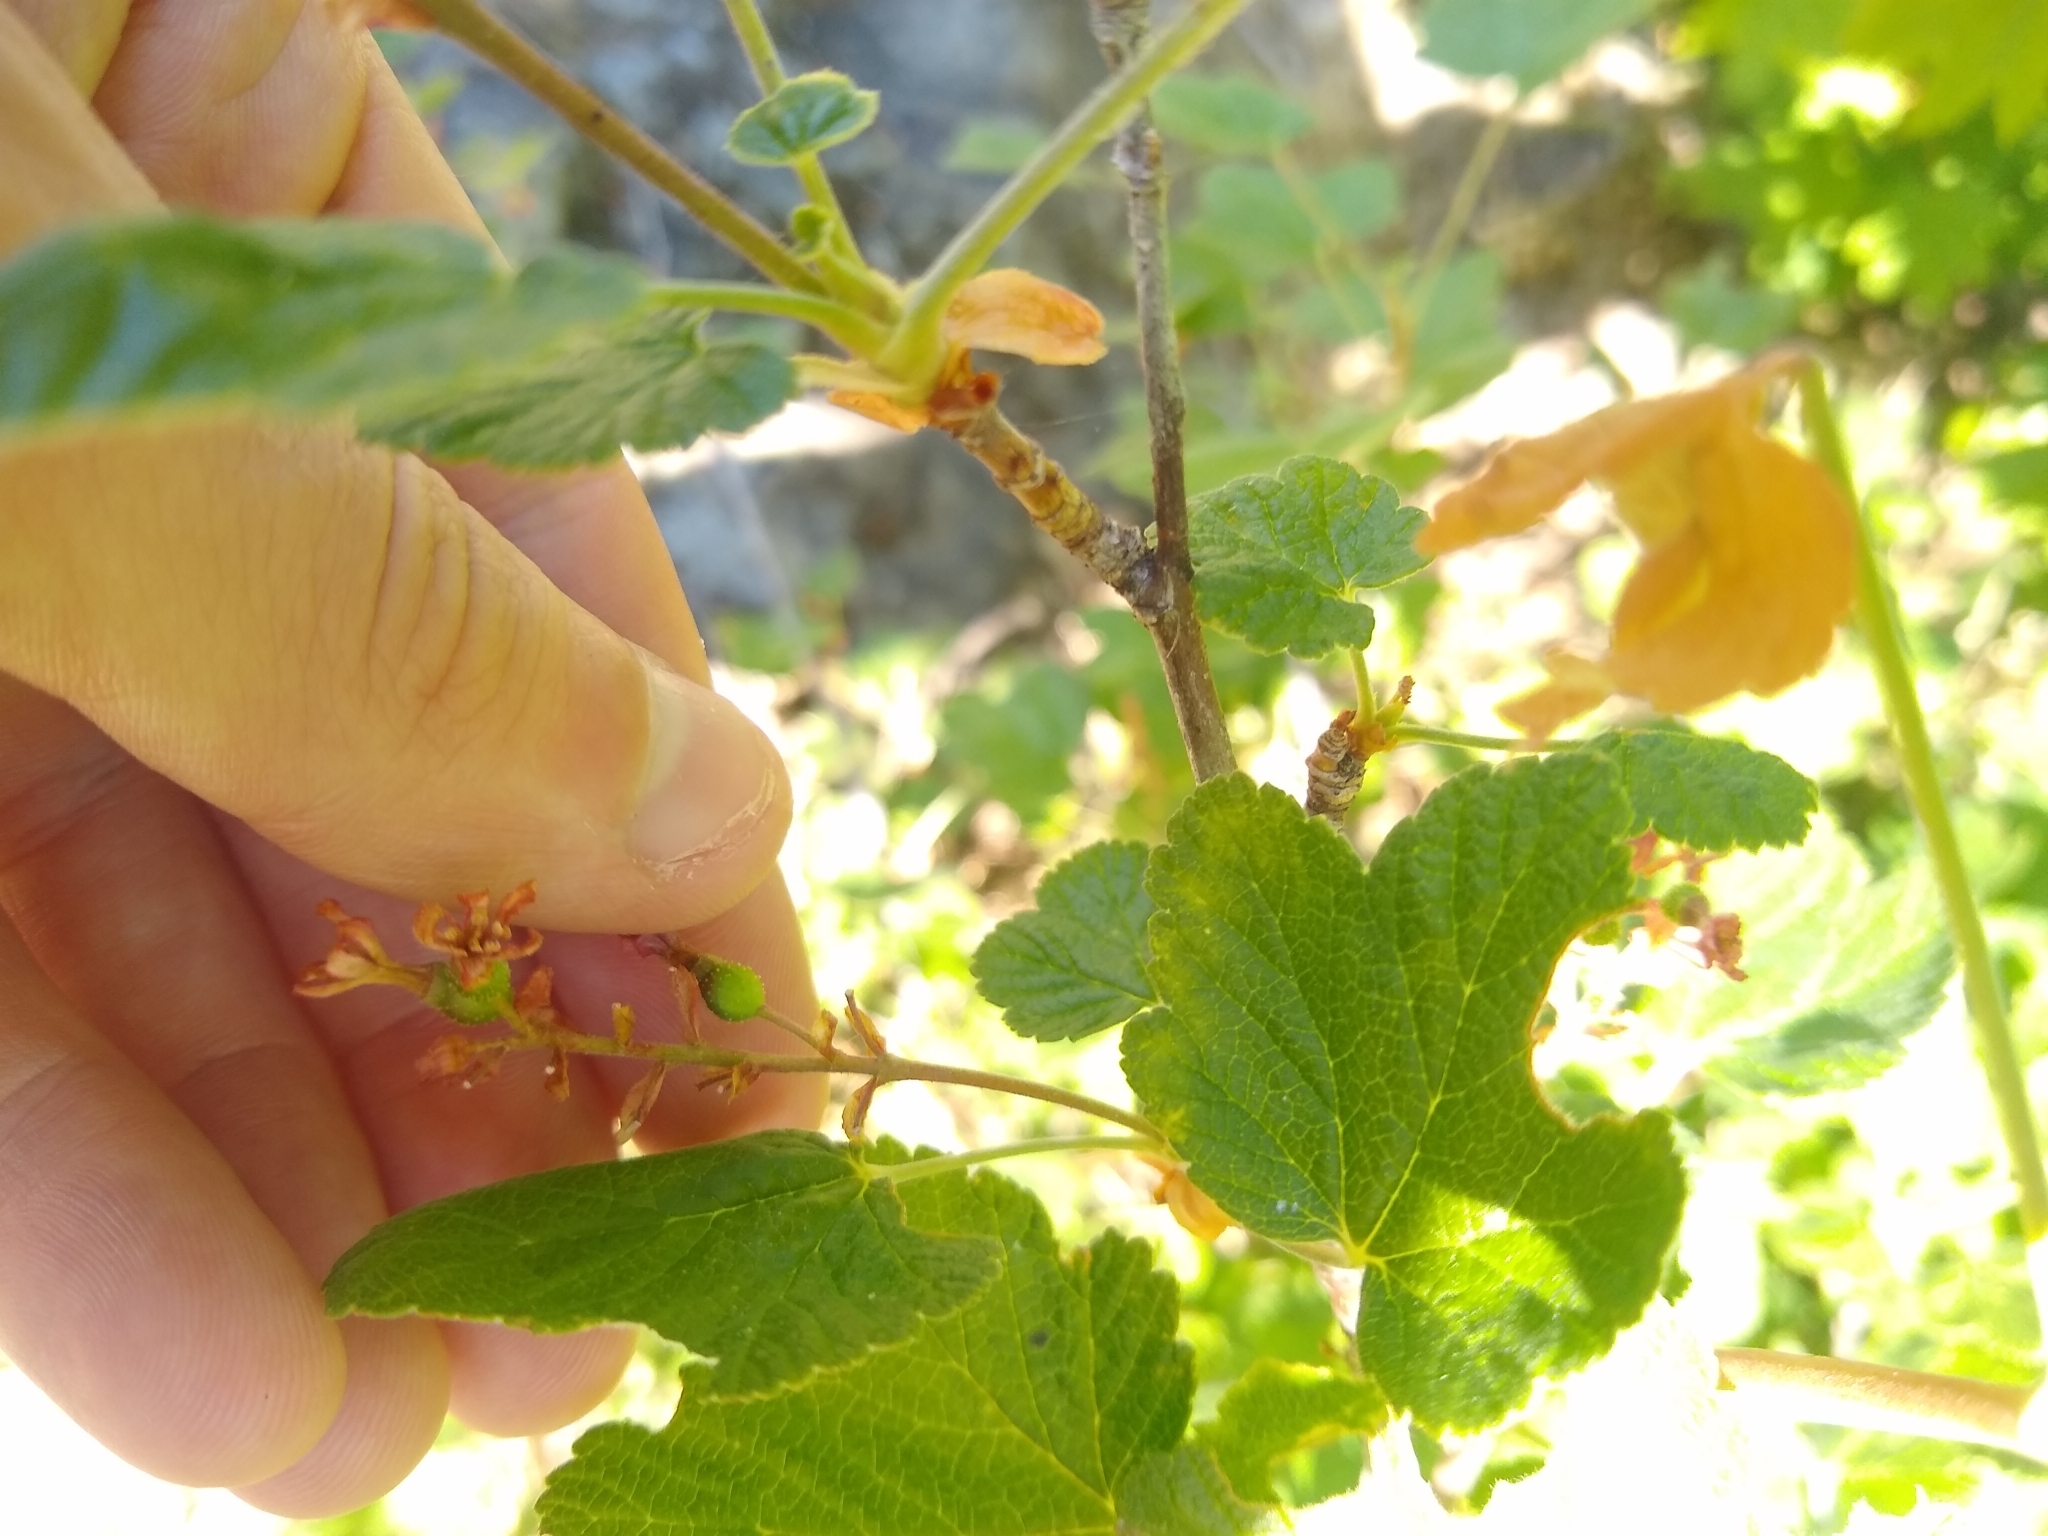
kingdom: Plantae
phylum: Tracheophyta
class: Magnoliopsida
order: Saxifragales
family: Grossulariaceae
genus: Ribes
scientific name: Ribes sanguineum
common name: Flowering currant
